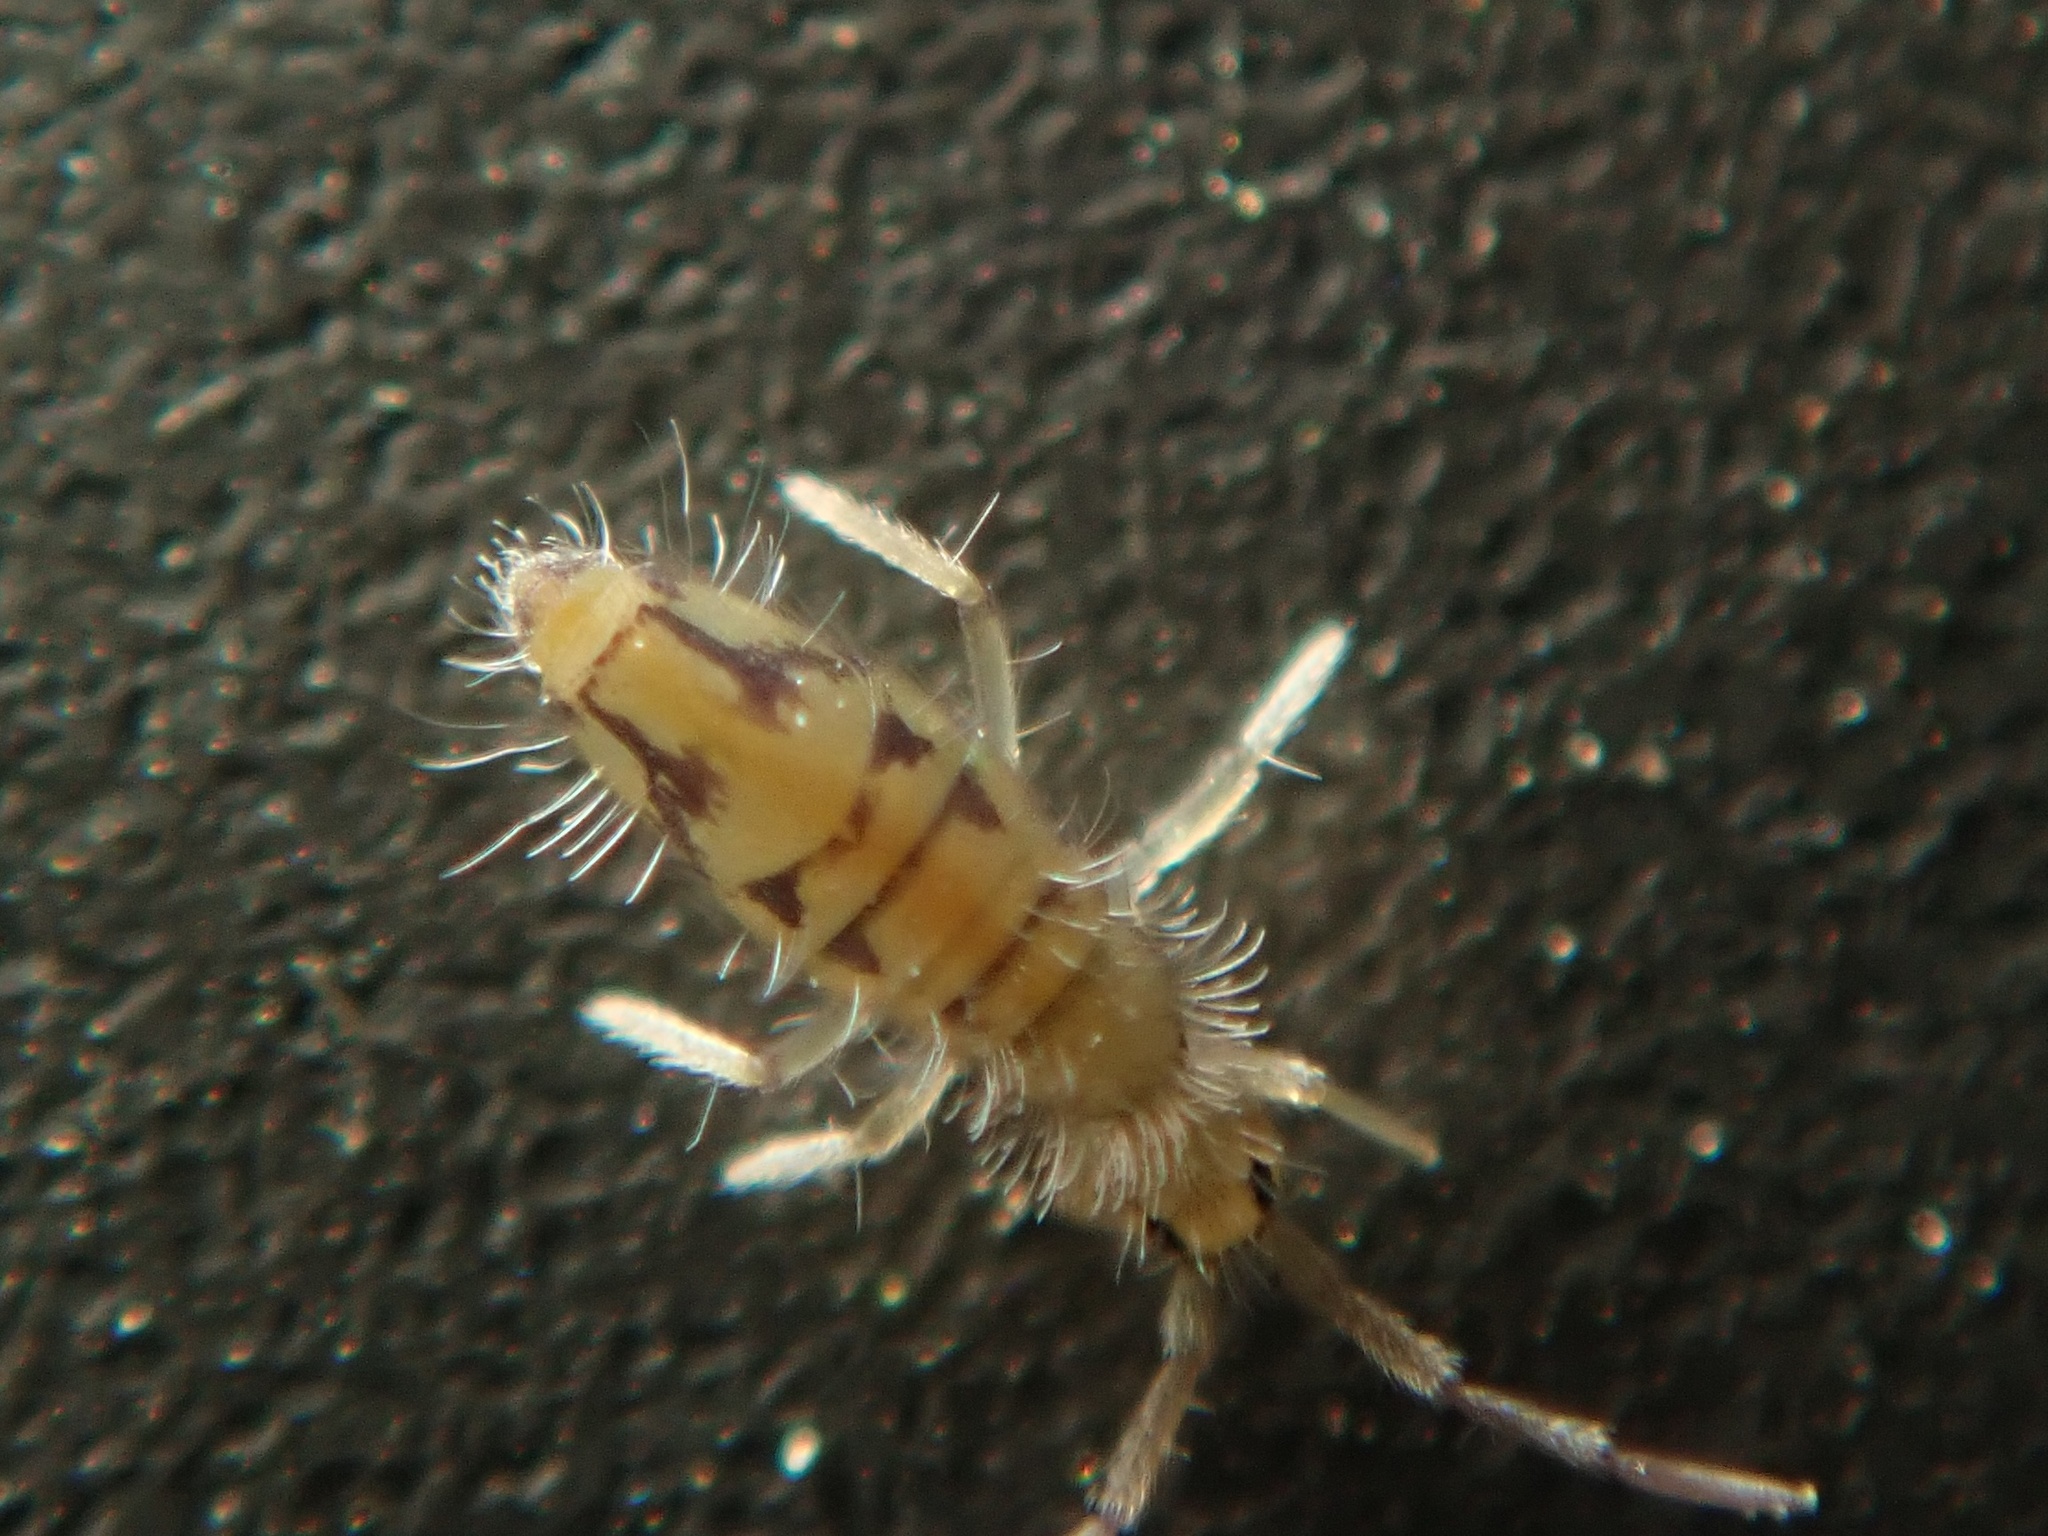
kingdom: Animalia
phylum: Arthropoda
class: Collembola
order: Entomobryomorpha
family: Entomobryidae
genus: Entomobrya
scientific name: Entomobrya nivalis
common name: Cosmopolitan springtail
